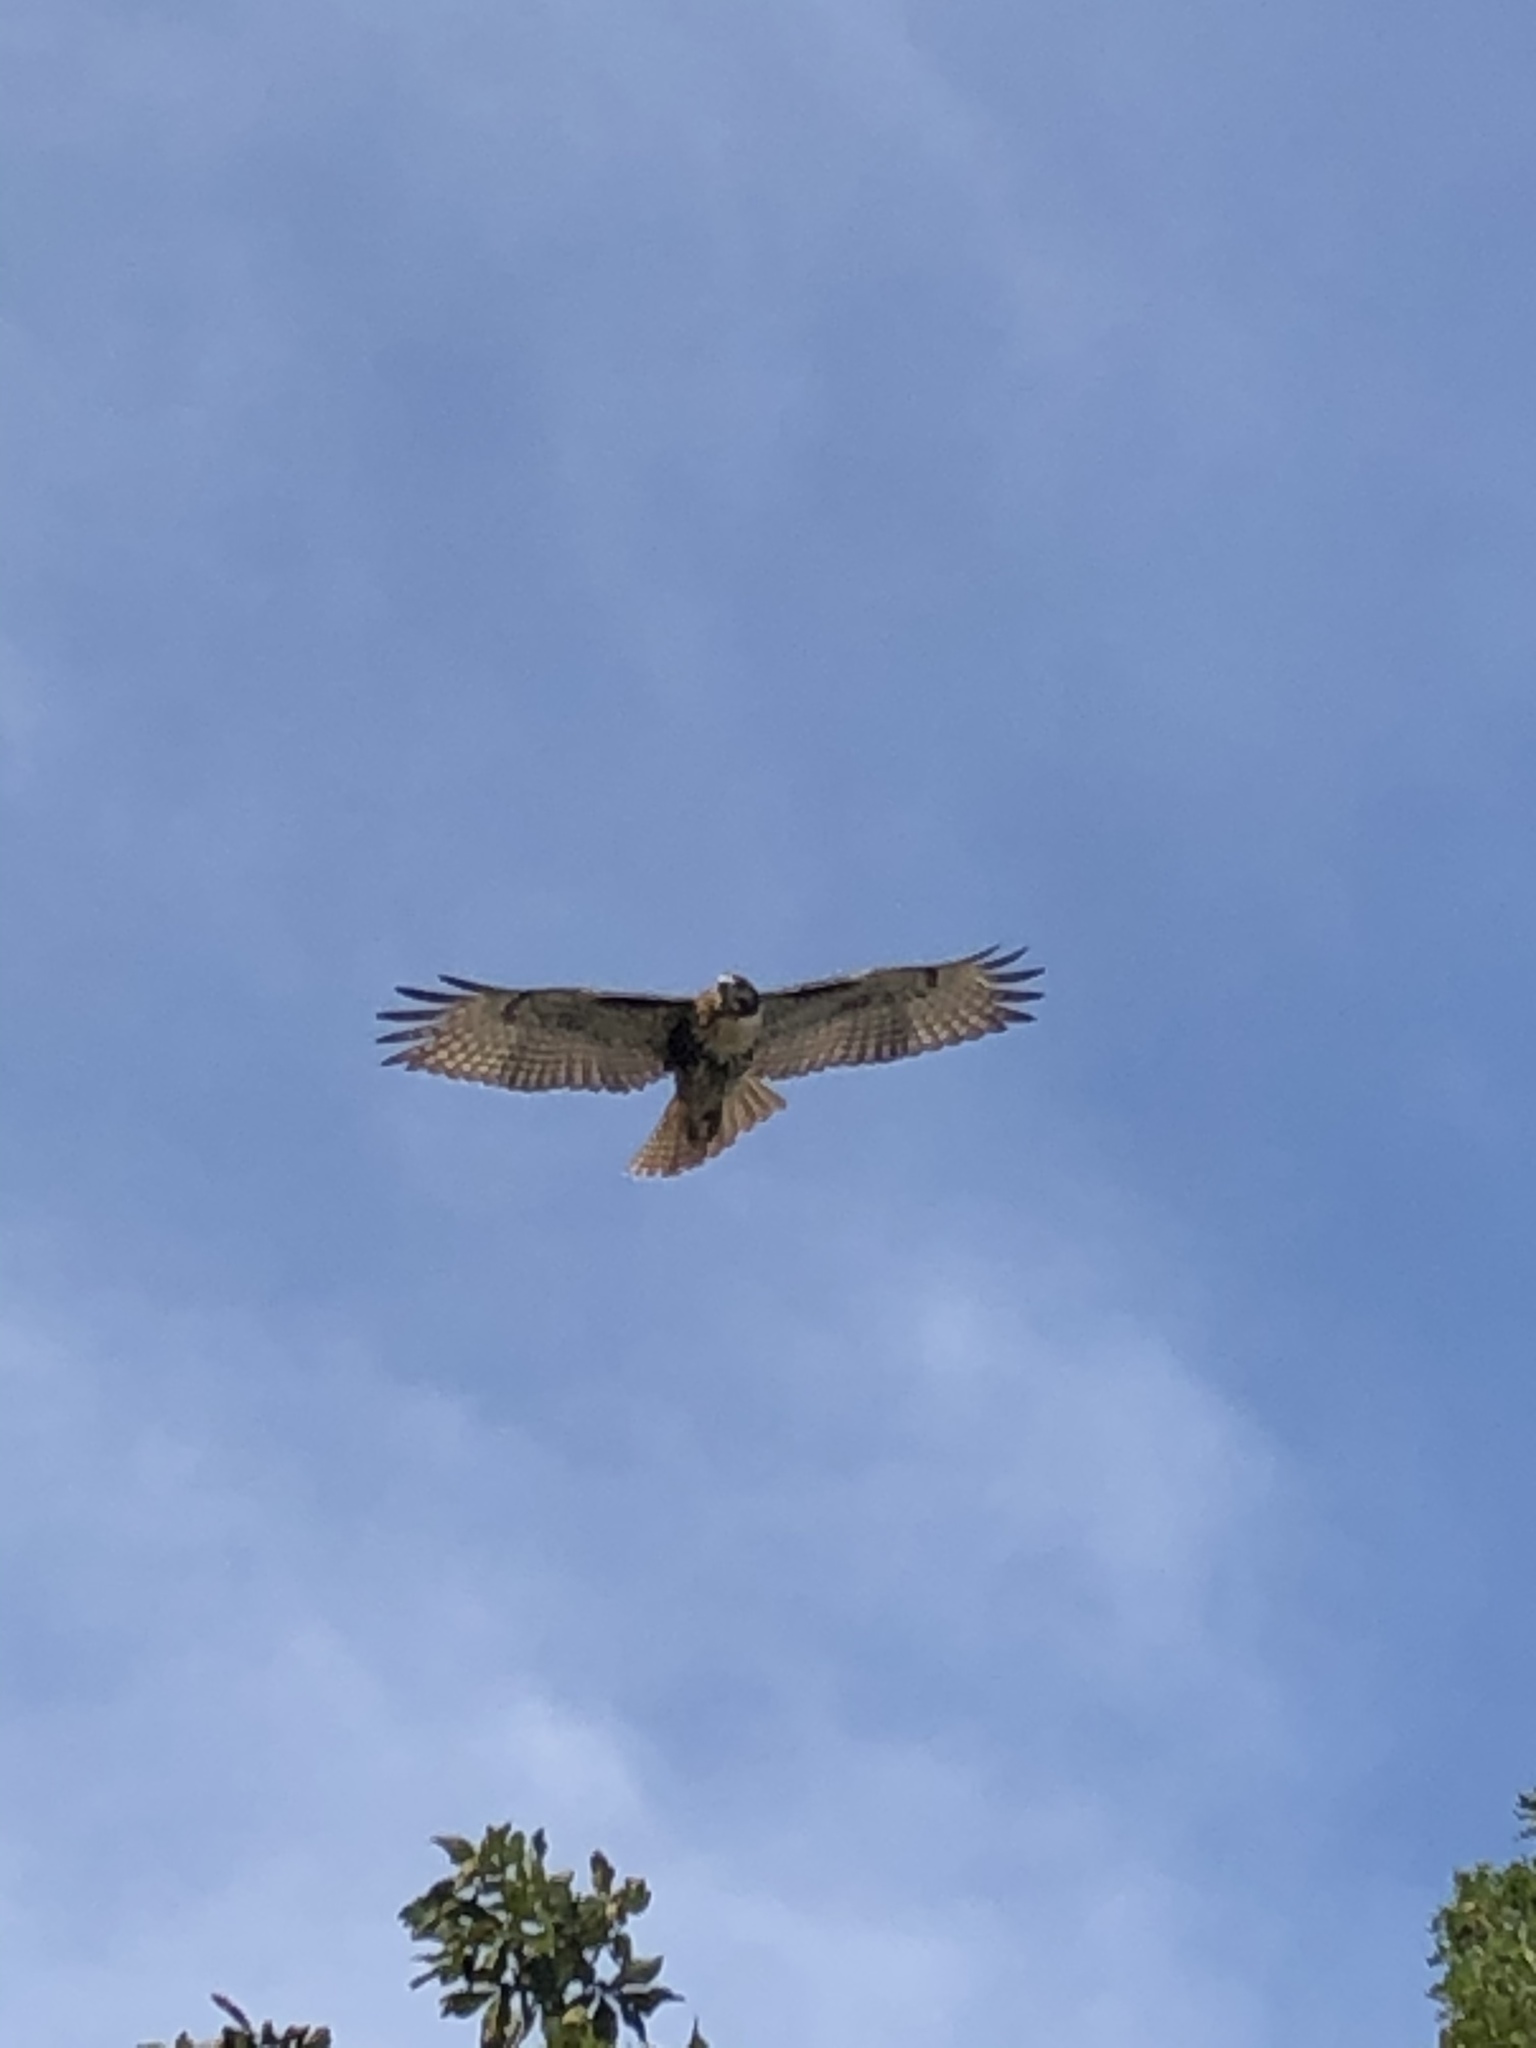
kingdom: Animalia
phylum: Chordata
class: Aves
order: Accipitriformes
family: Accipitridae
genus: Buteo
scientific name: Buteo jamaicensis
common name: Red-tailed hawk
